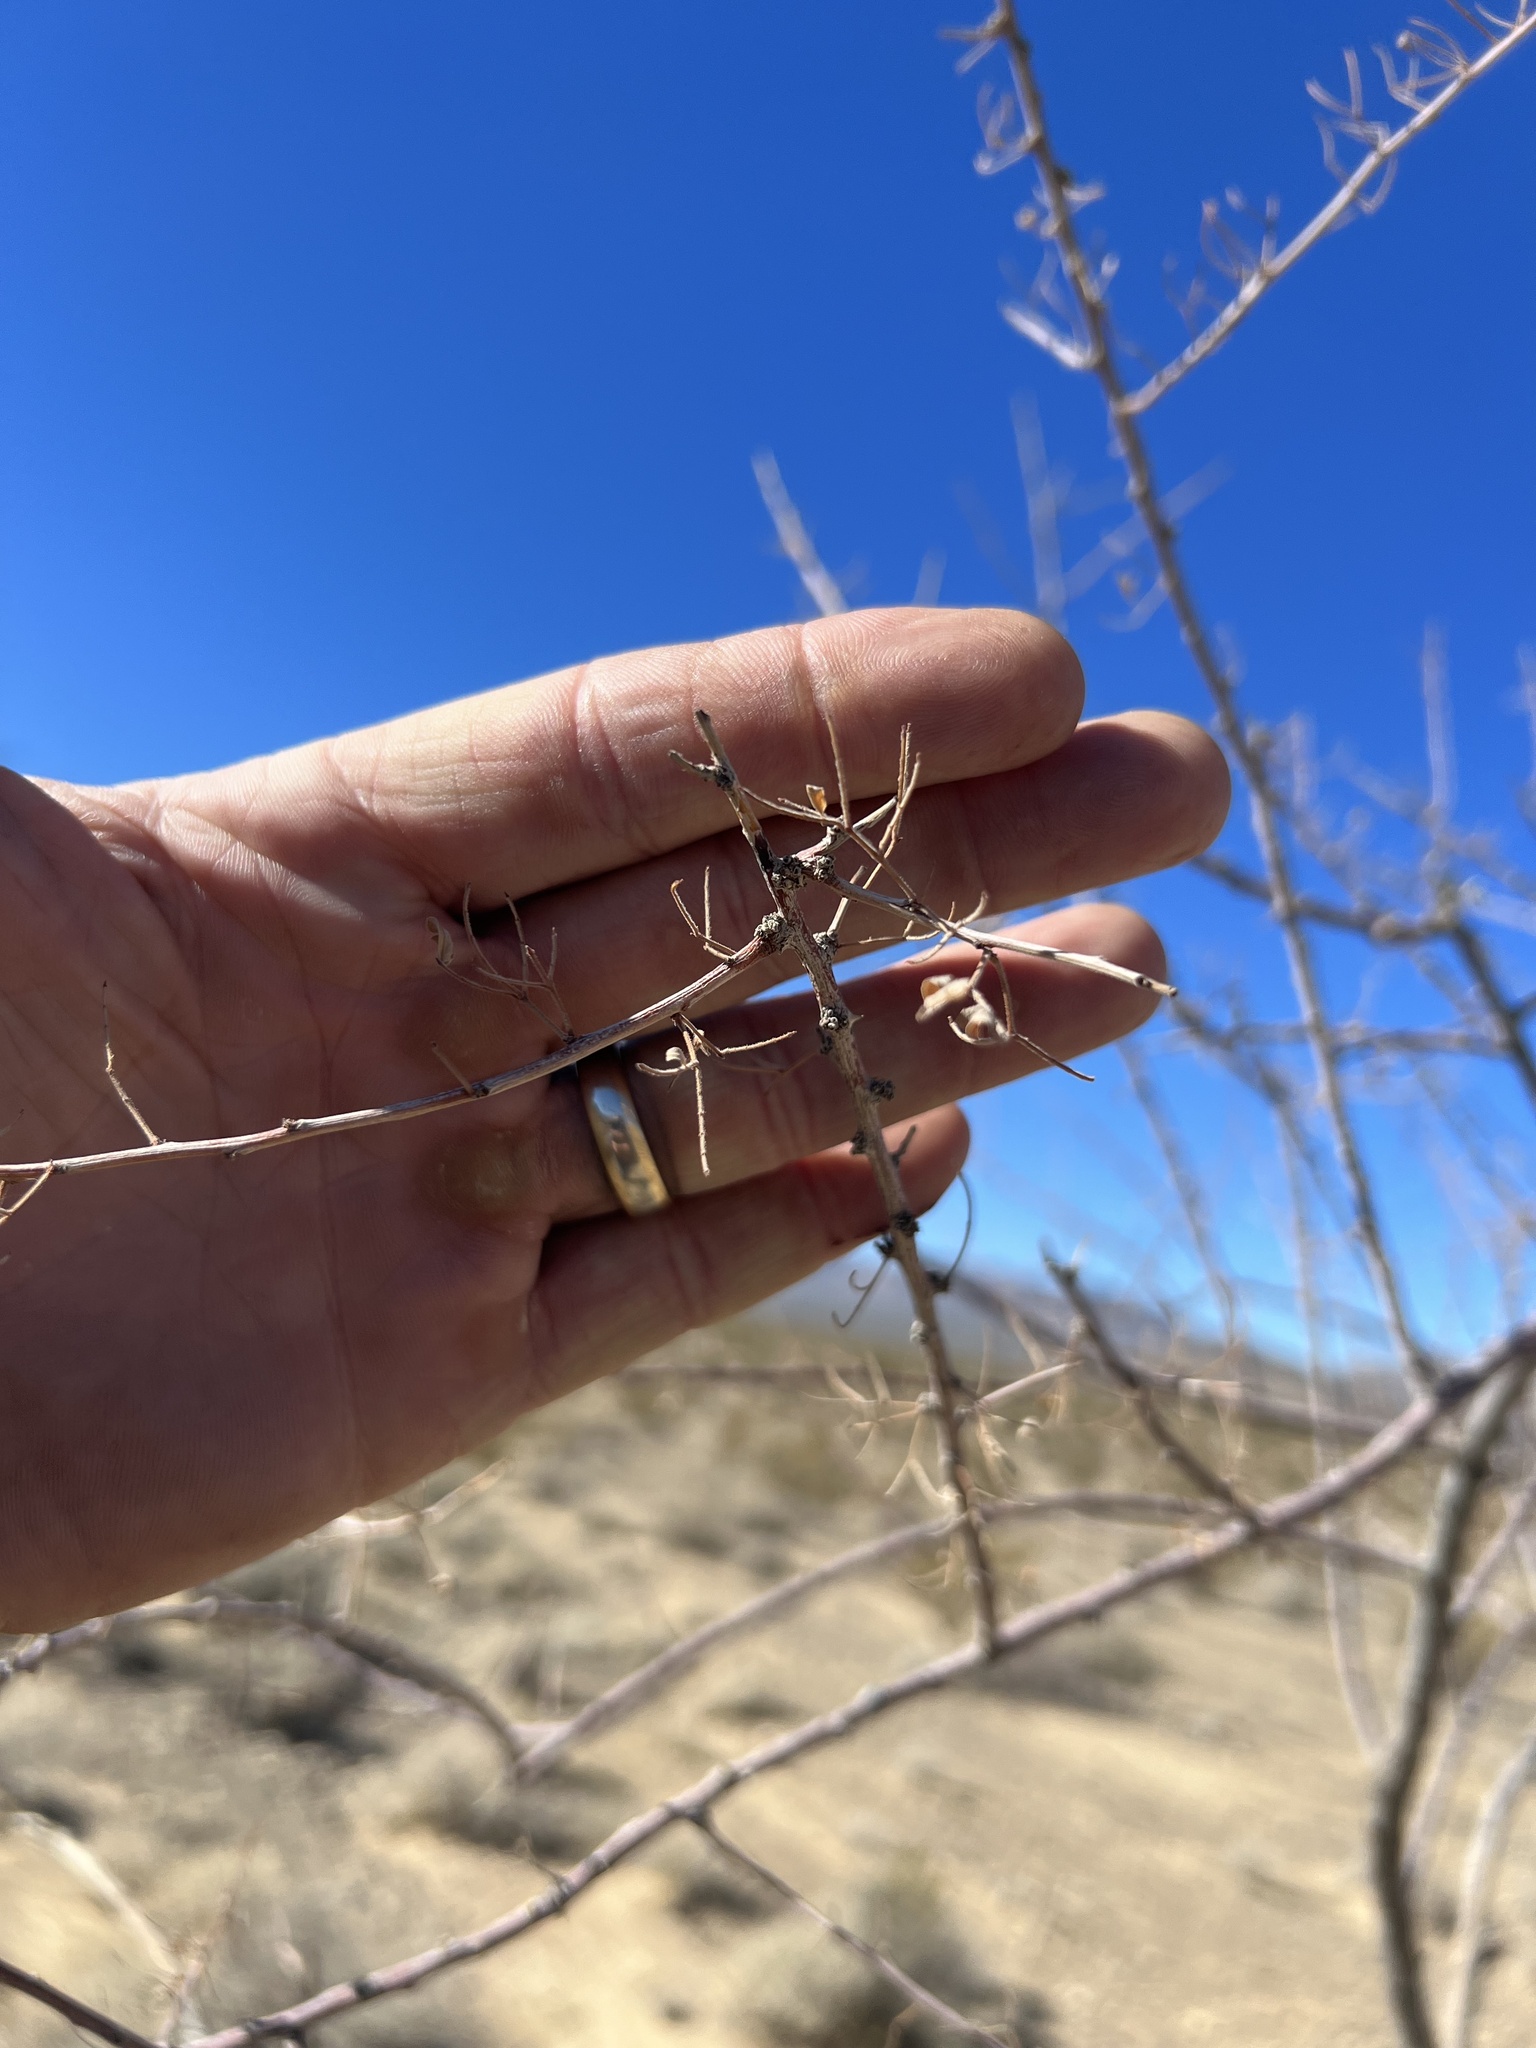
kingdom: Plantae
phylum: Tracheophyta
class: Magnoliopsida
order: Fabales
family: Fabaceae
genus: Senegalia
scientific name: Senegalia greggii
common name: Texas-mimosa
